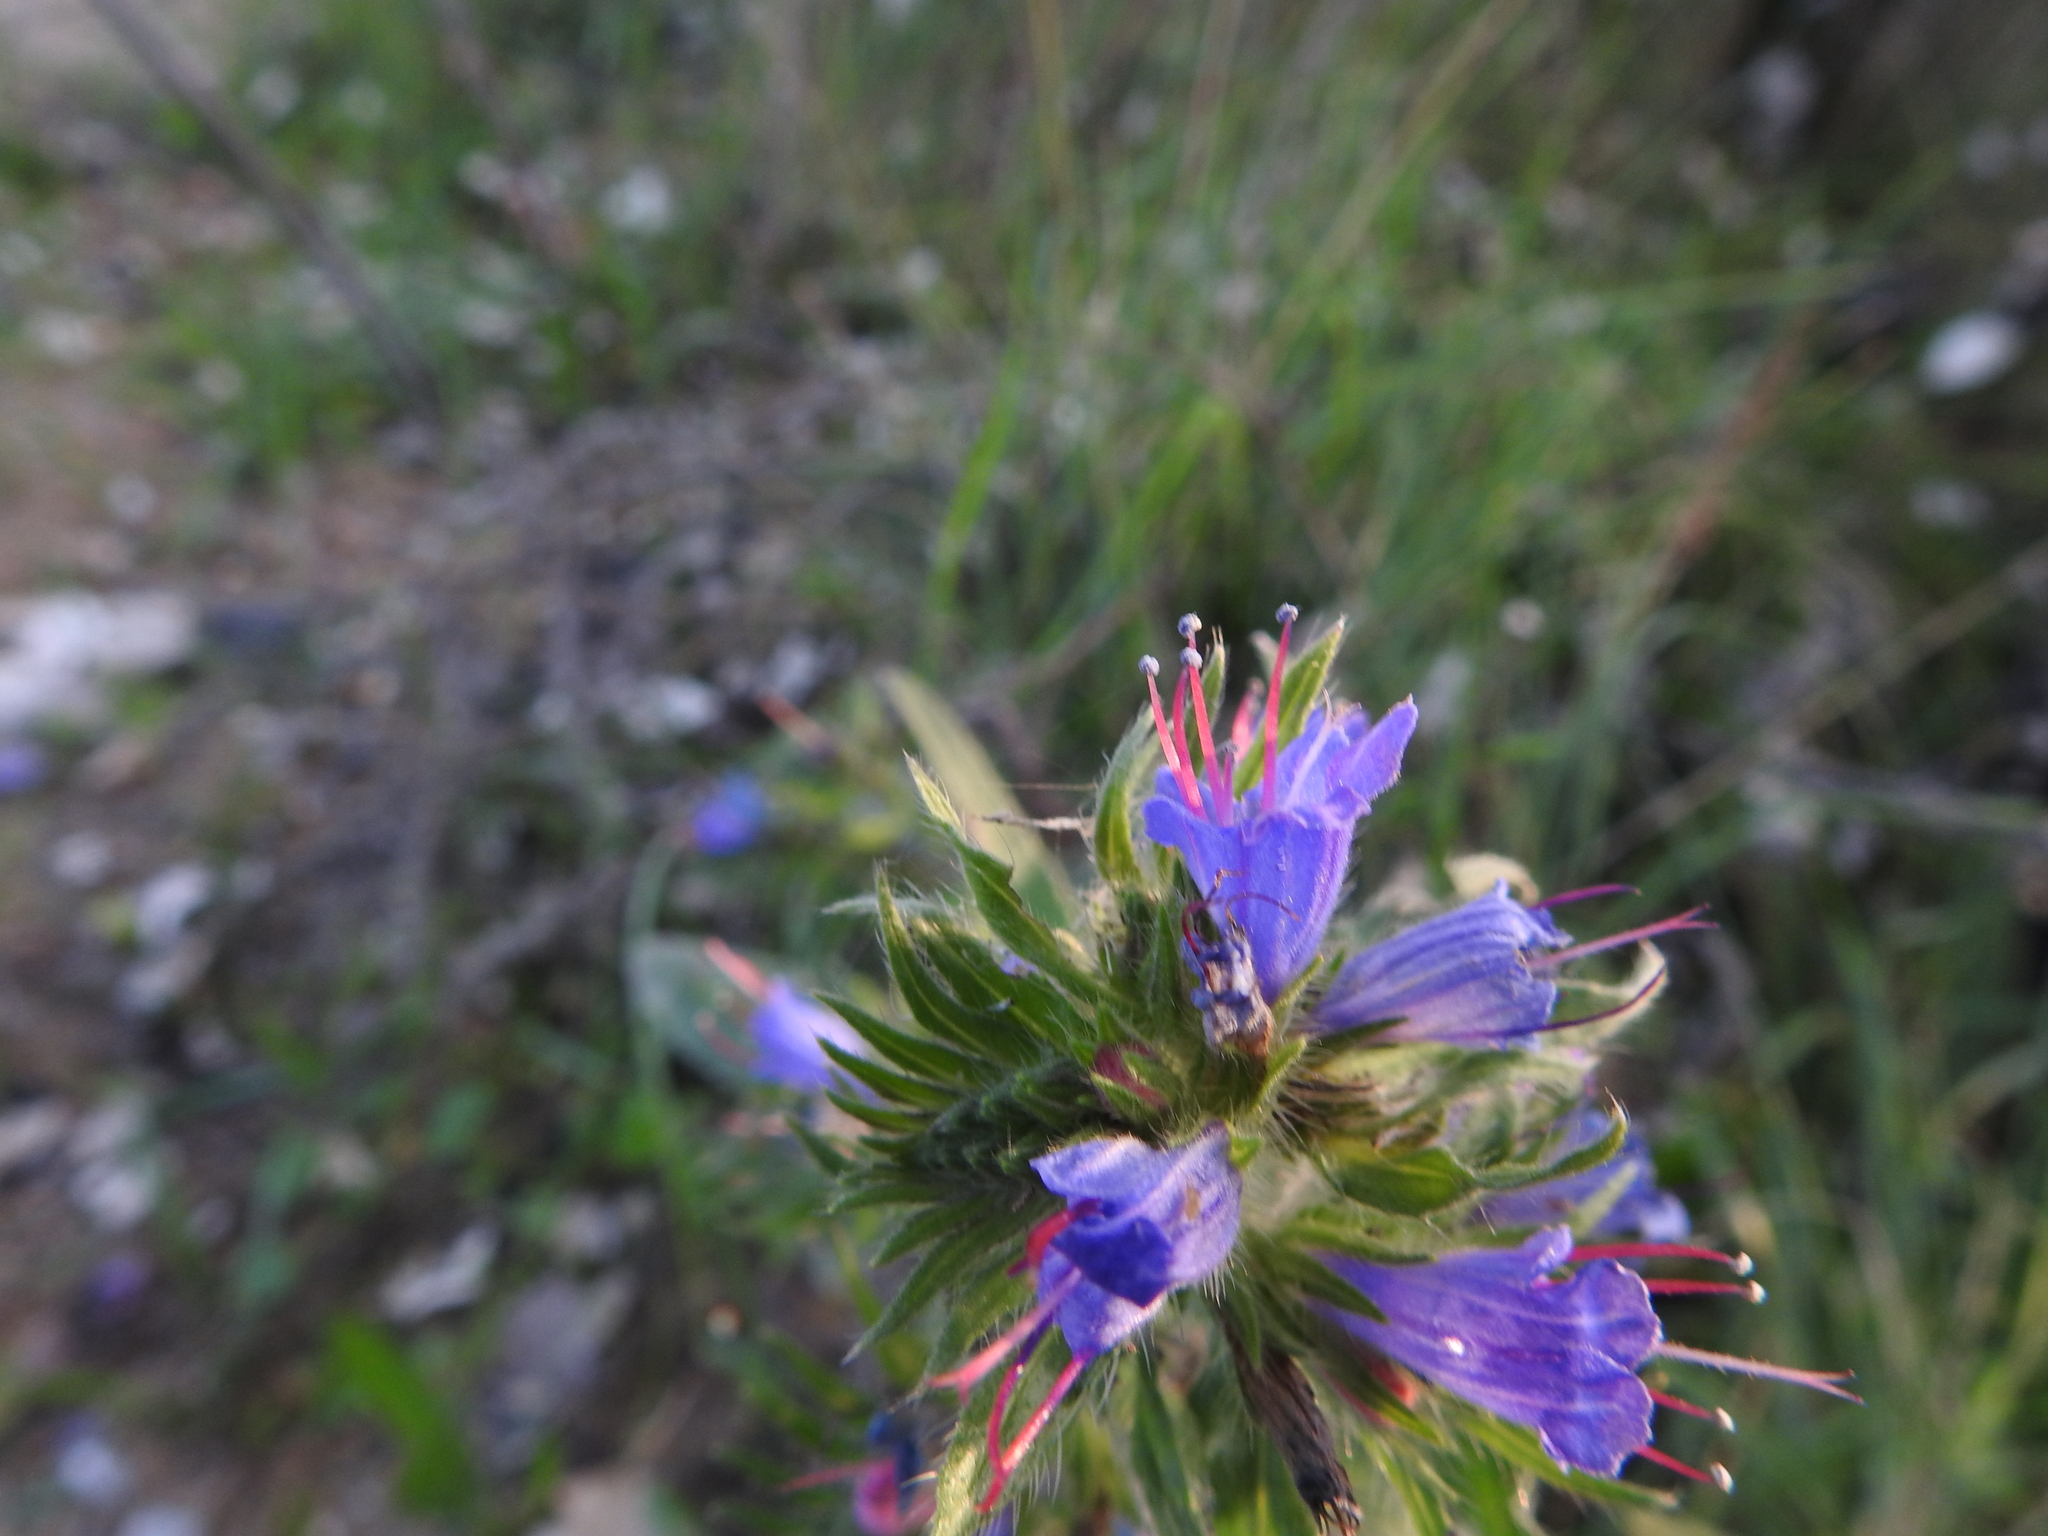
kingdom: Plantae
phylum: Tracheophyta
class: Magnoliopsida
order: Boraginales
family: Boraginaceae
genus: Echium
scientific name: Echium vulgare
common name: Common viper's bugloss
